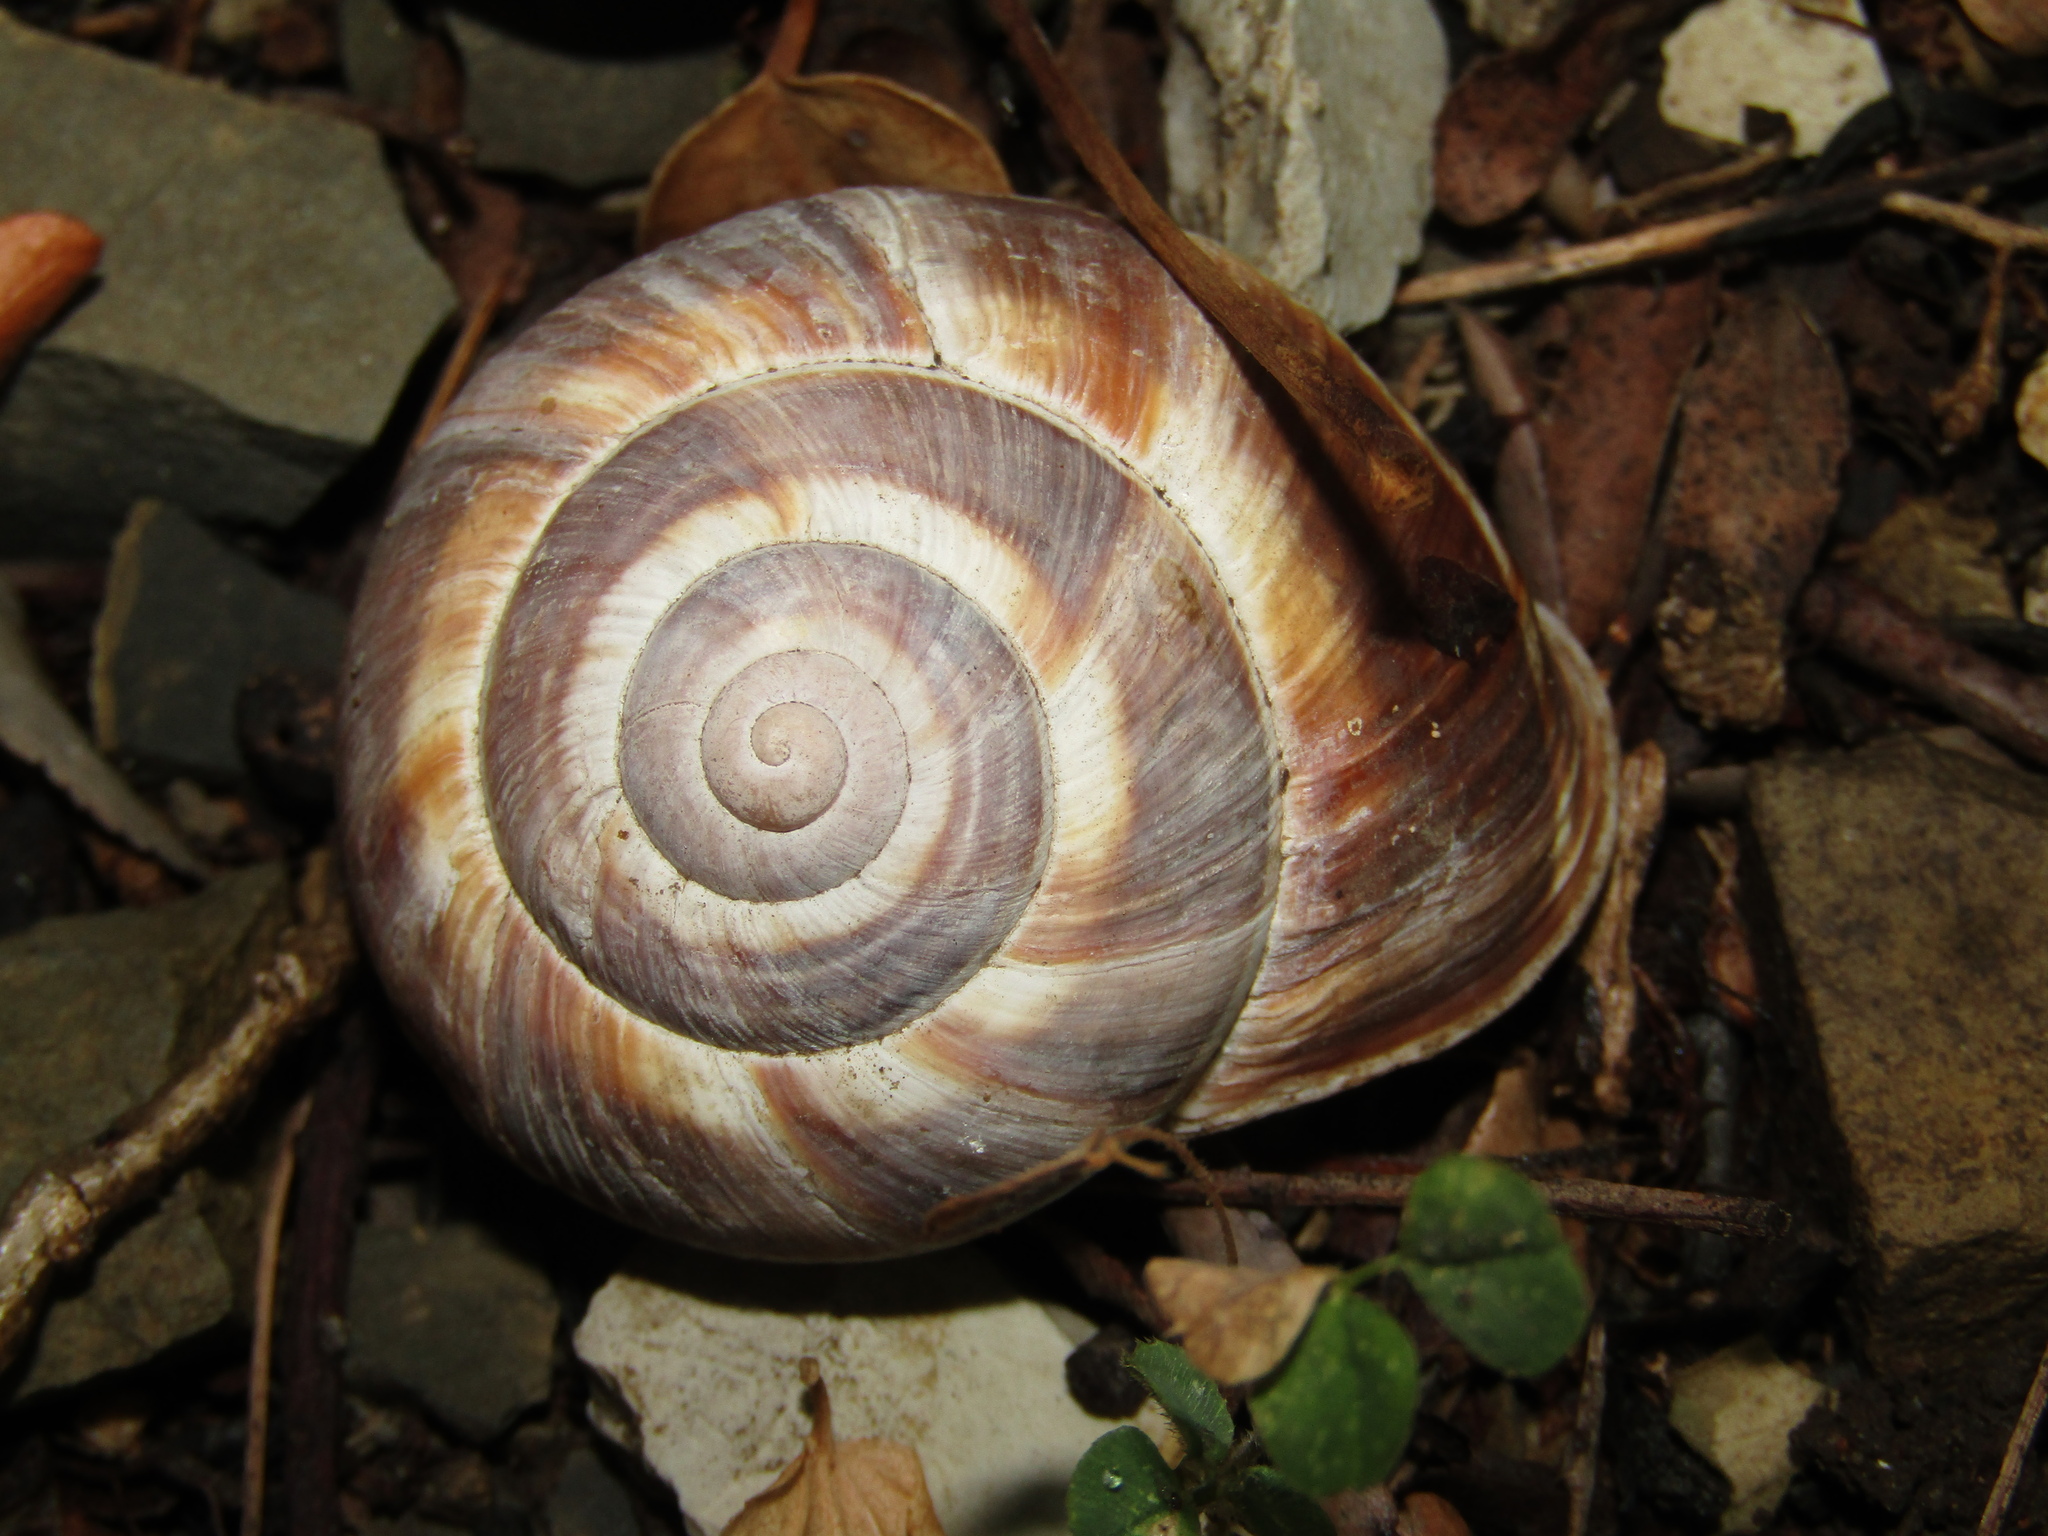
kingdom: Animalia
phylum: Mollusca
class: Gastropoda
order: Stylommatophora
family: Helicidae
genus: Helix
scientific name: Helix lucorum
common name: Turkish snail
